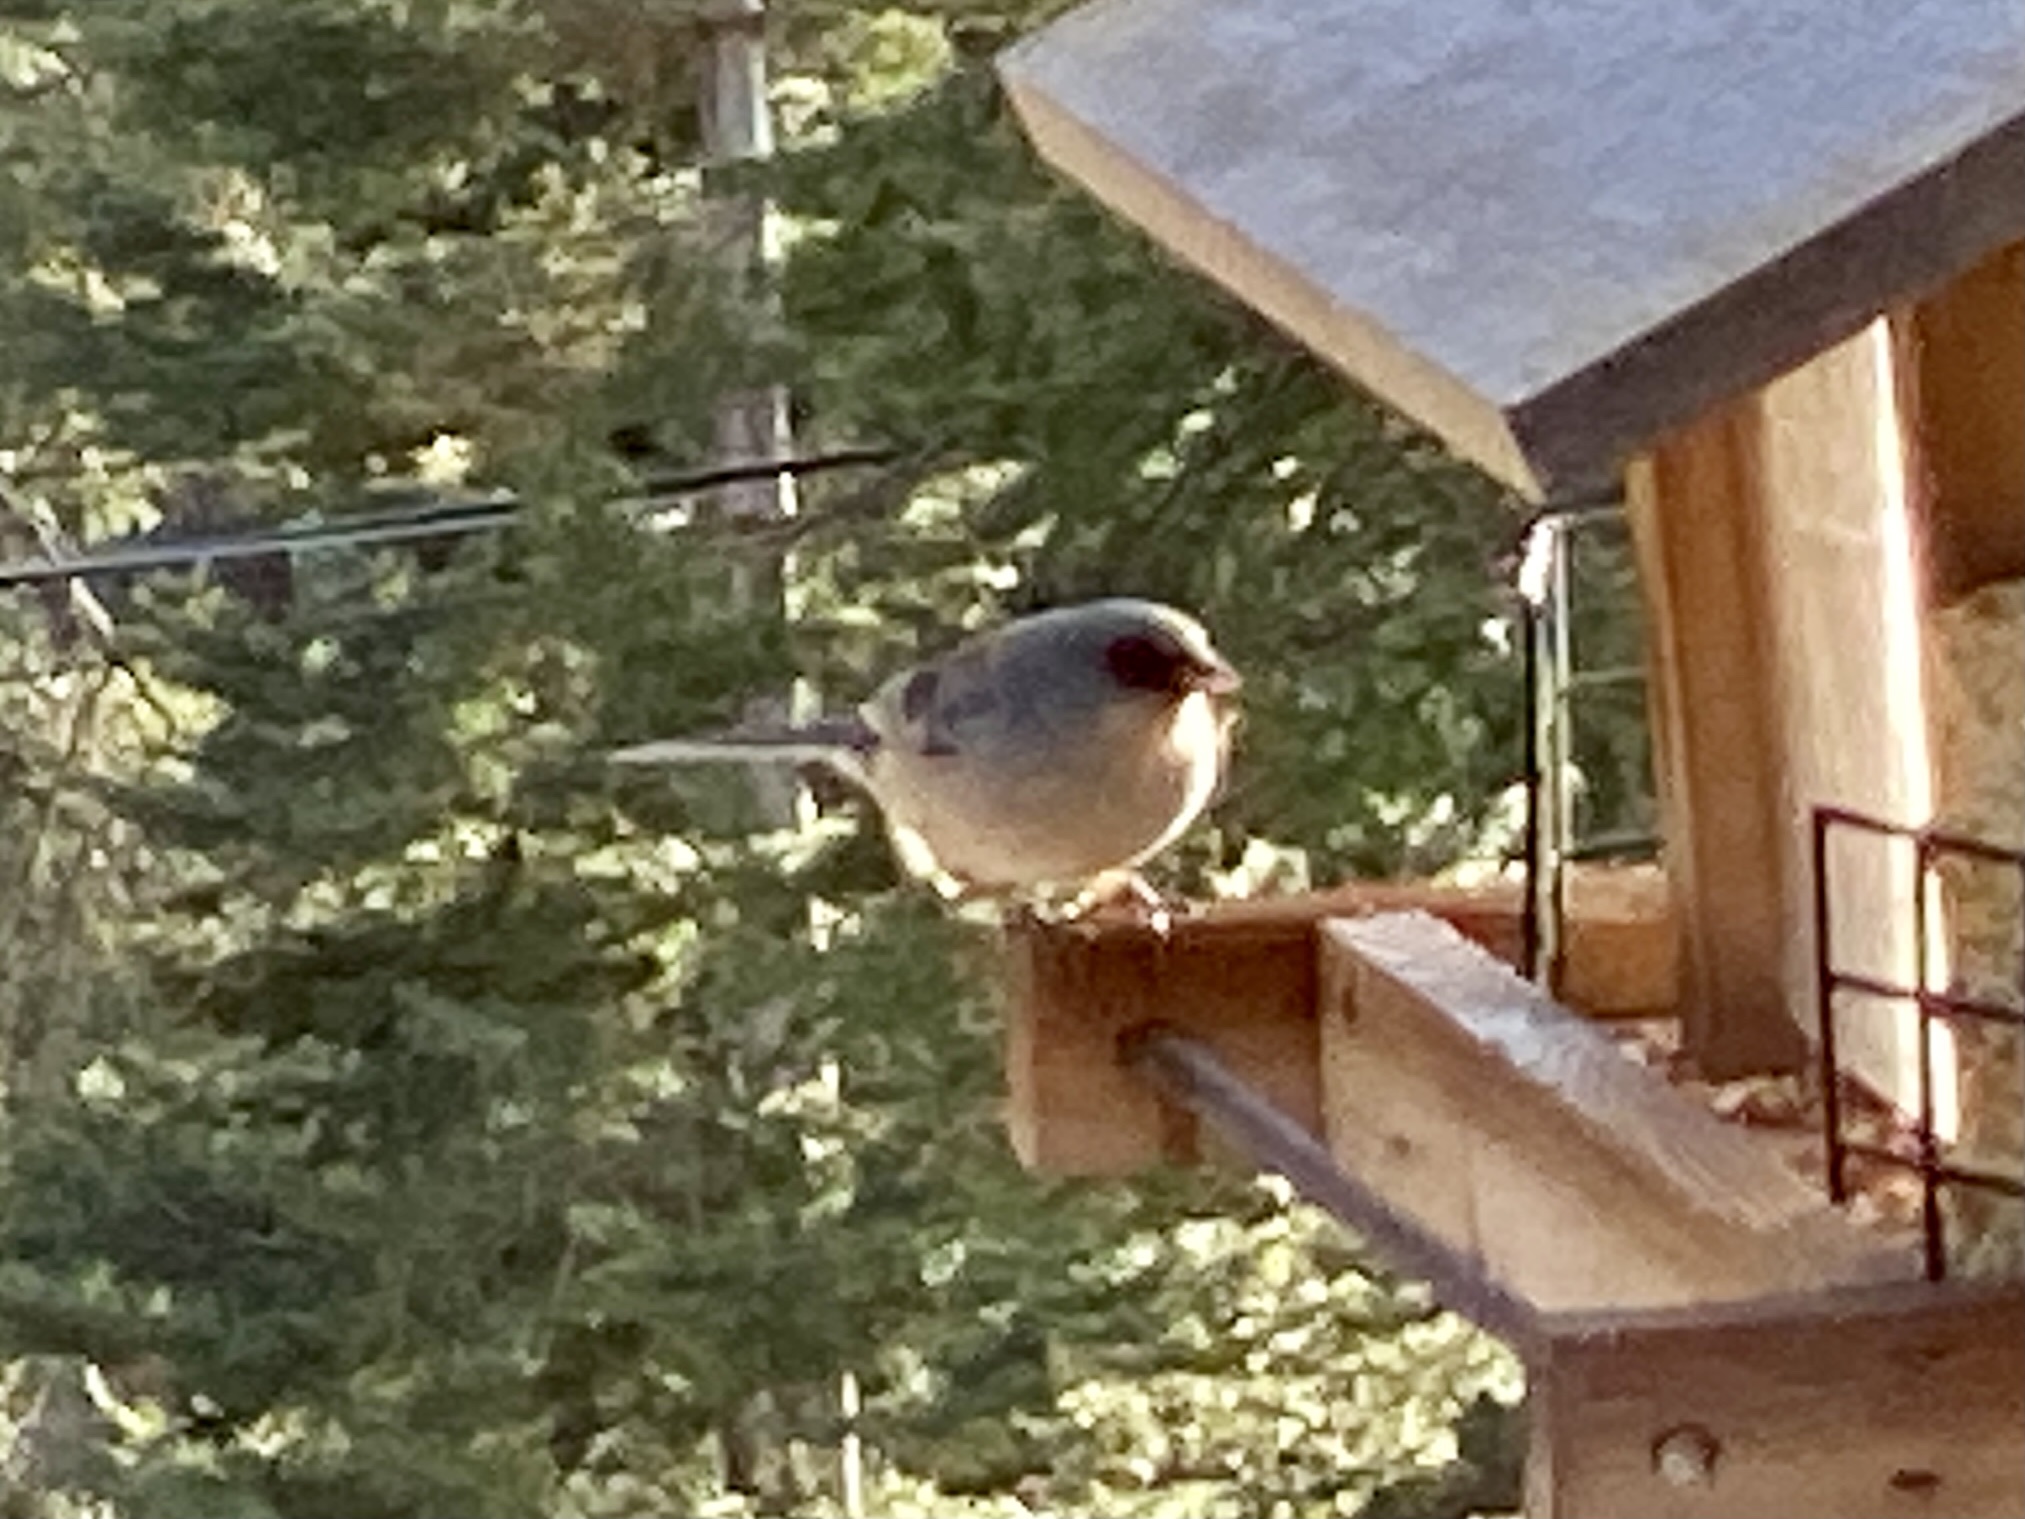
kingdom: Animalia
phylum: Chordata
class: Aves
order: Passeriformes
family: Passerellidae
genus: Junco
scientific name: Junco hyemalis
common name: Dark-eyed junco
